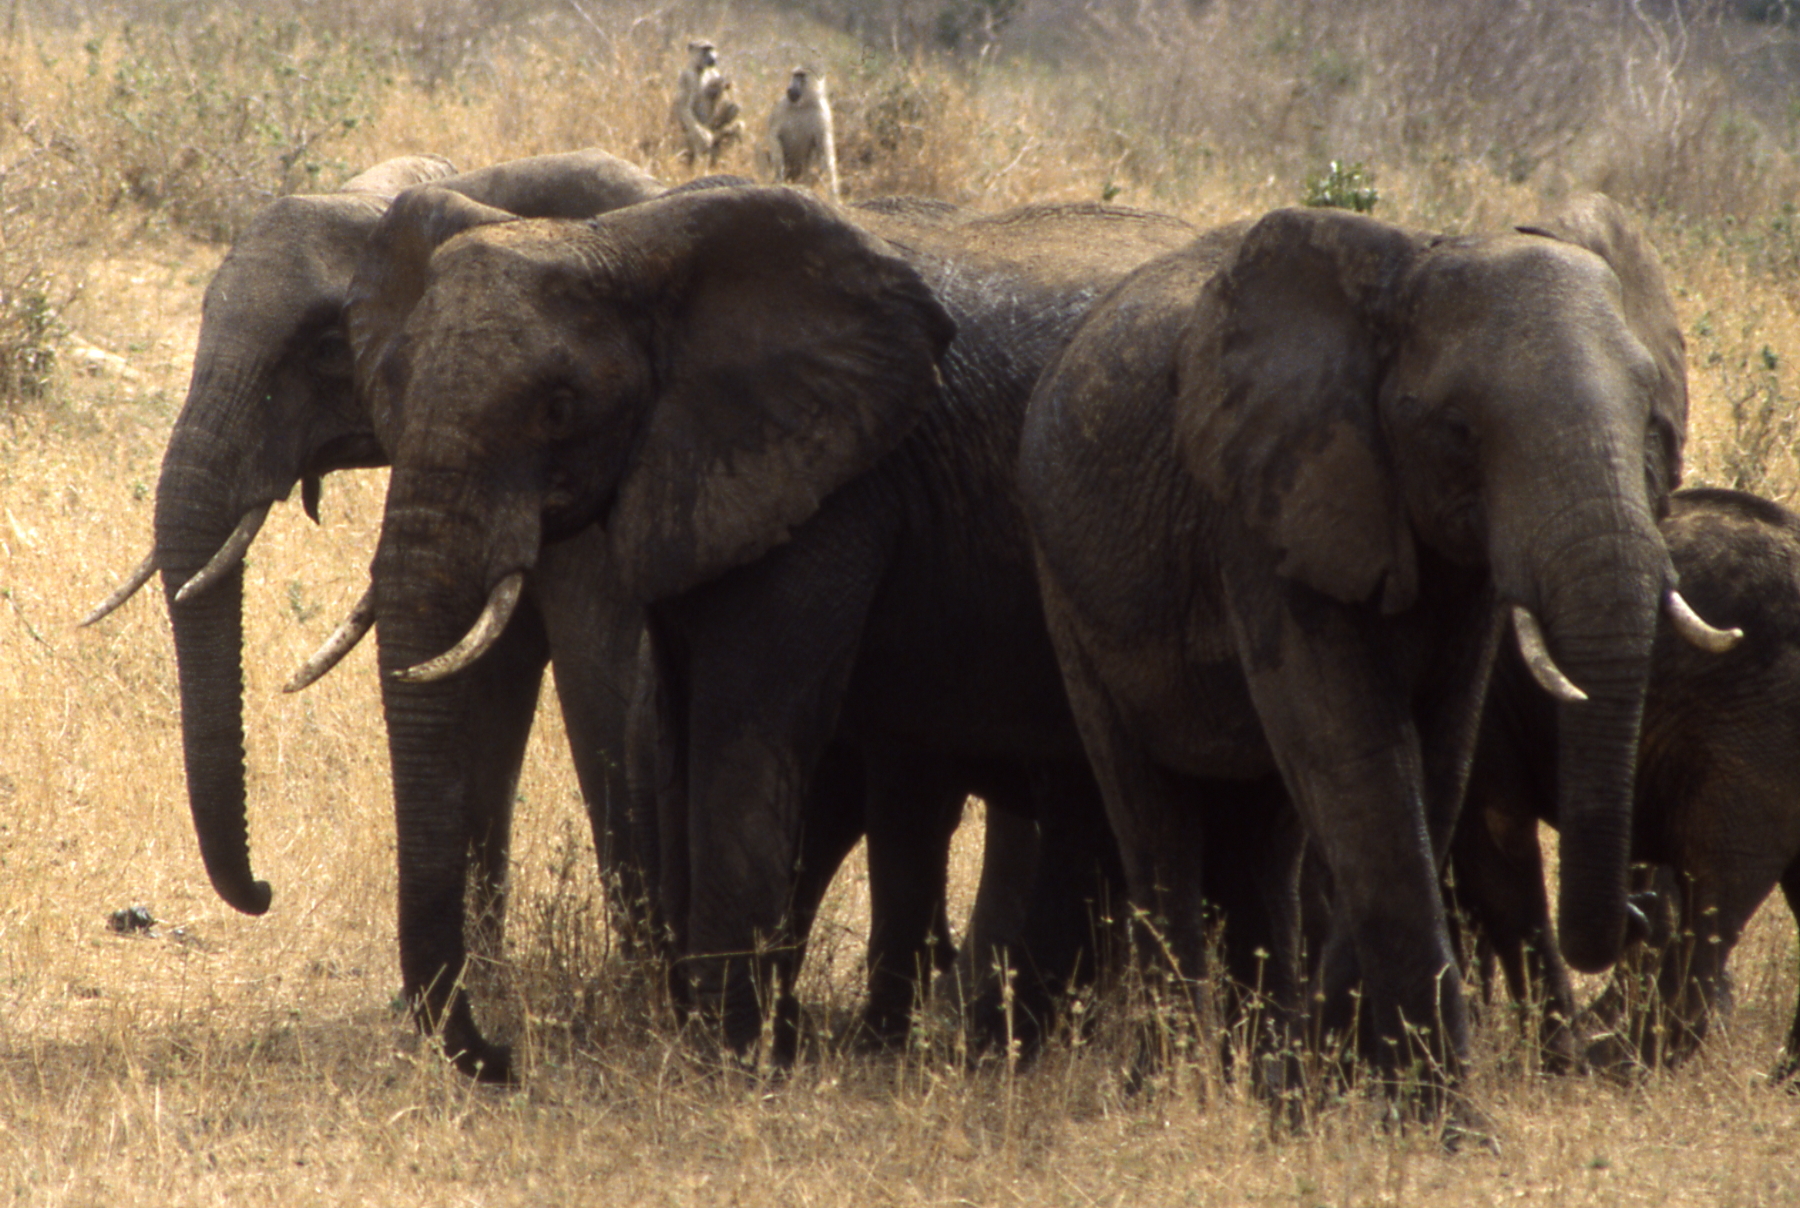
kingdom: Animalia
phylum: Chordata
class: Mammalia
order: Proboscidea
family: Elephantidae
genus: Loxodonta
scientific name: Loxodonta africana
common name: African elephant
